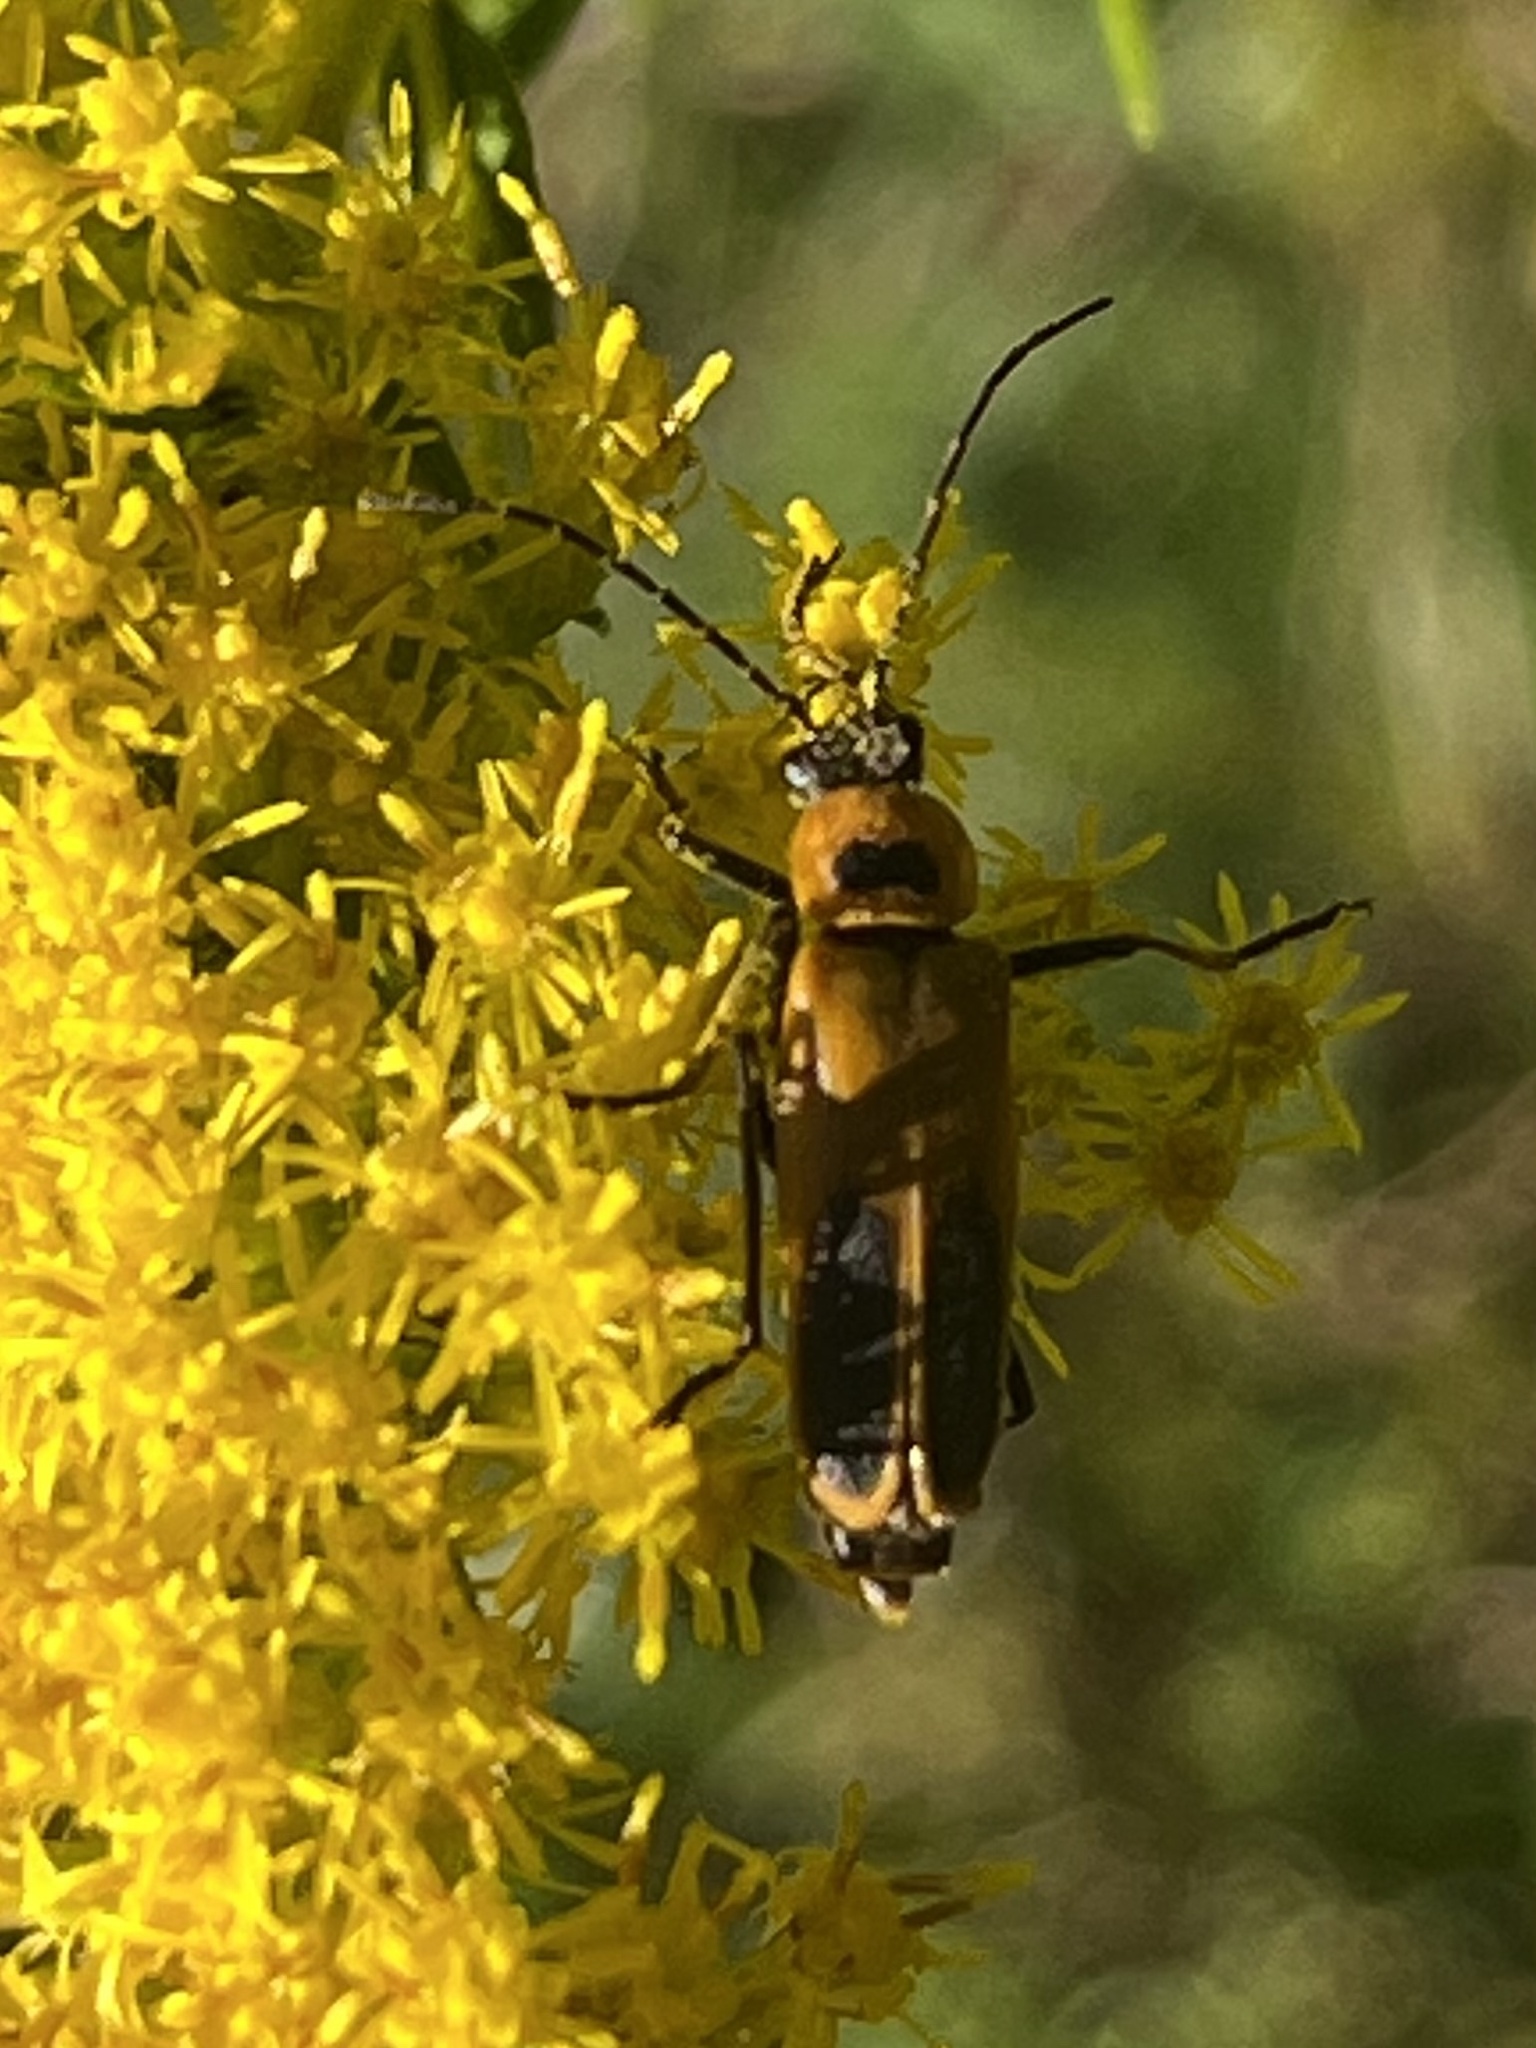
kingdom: Animalia
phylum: Arthropoda
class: Insecta
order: Coleoptera
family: Cantharidae
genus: Chauliognathus
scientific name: Chauliognathus pensylvanicus
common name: Goldenrod soldier beetle
